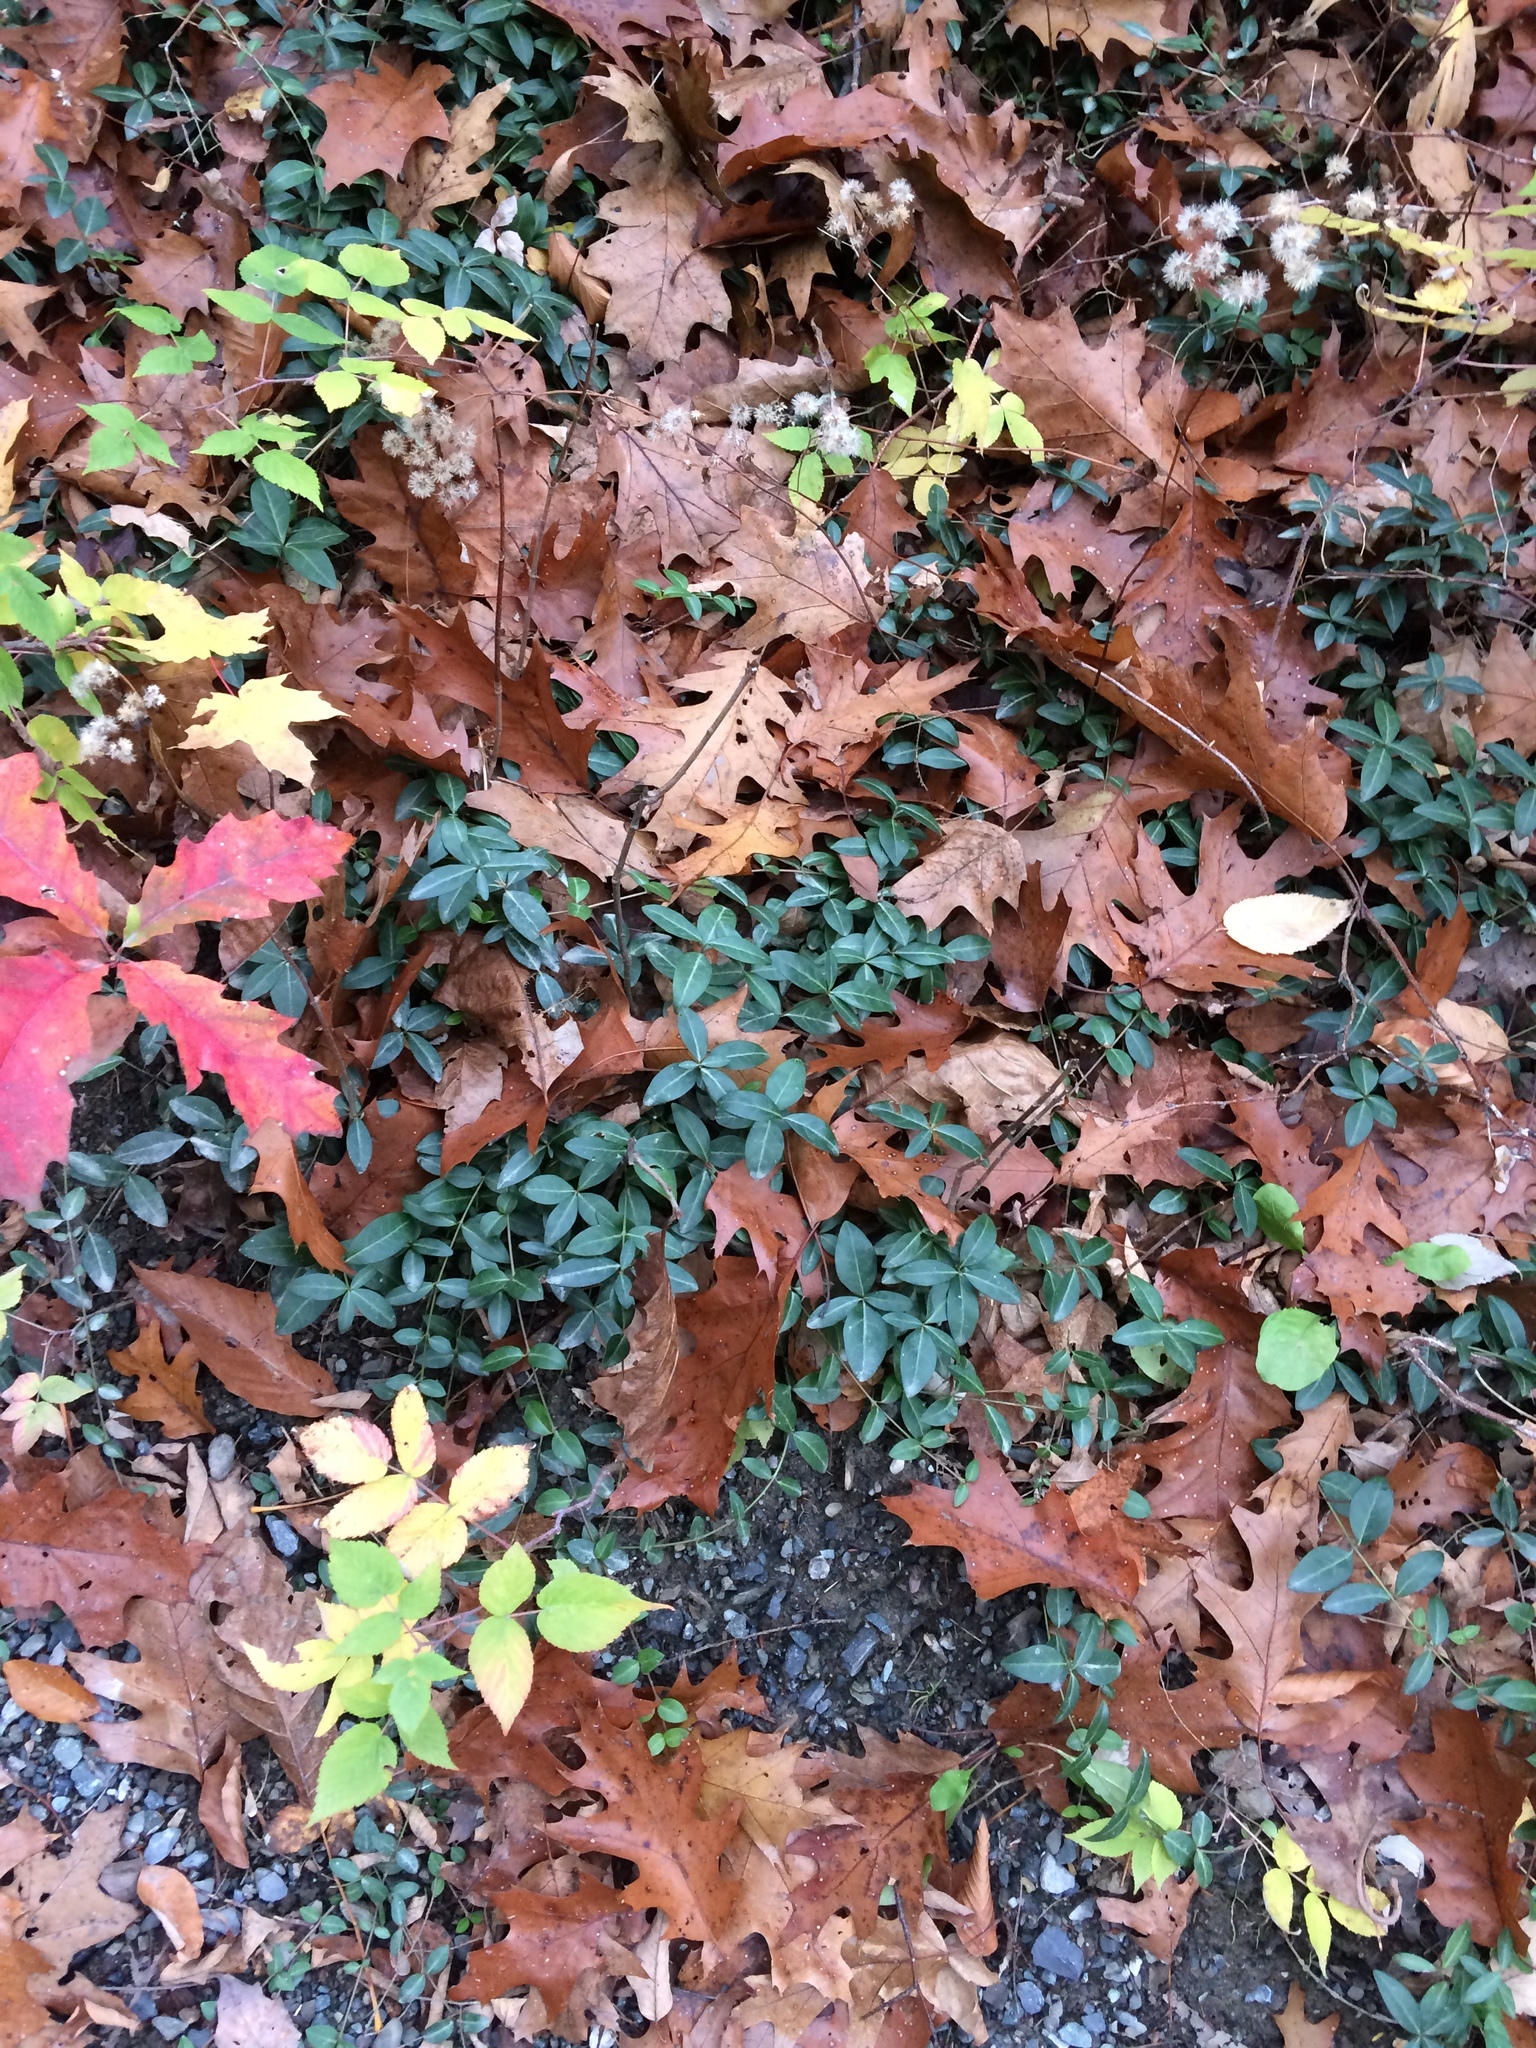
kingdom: Plantae
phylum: Tracheophyta
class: Magnoliopsida
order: Gentianales
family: Apocynaceae
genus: Vinca
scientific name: Vinca minor
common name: Lesser periwinkle
